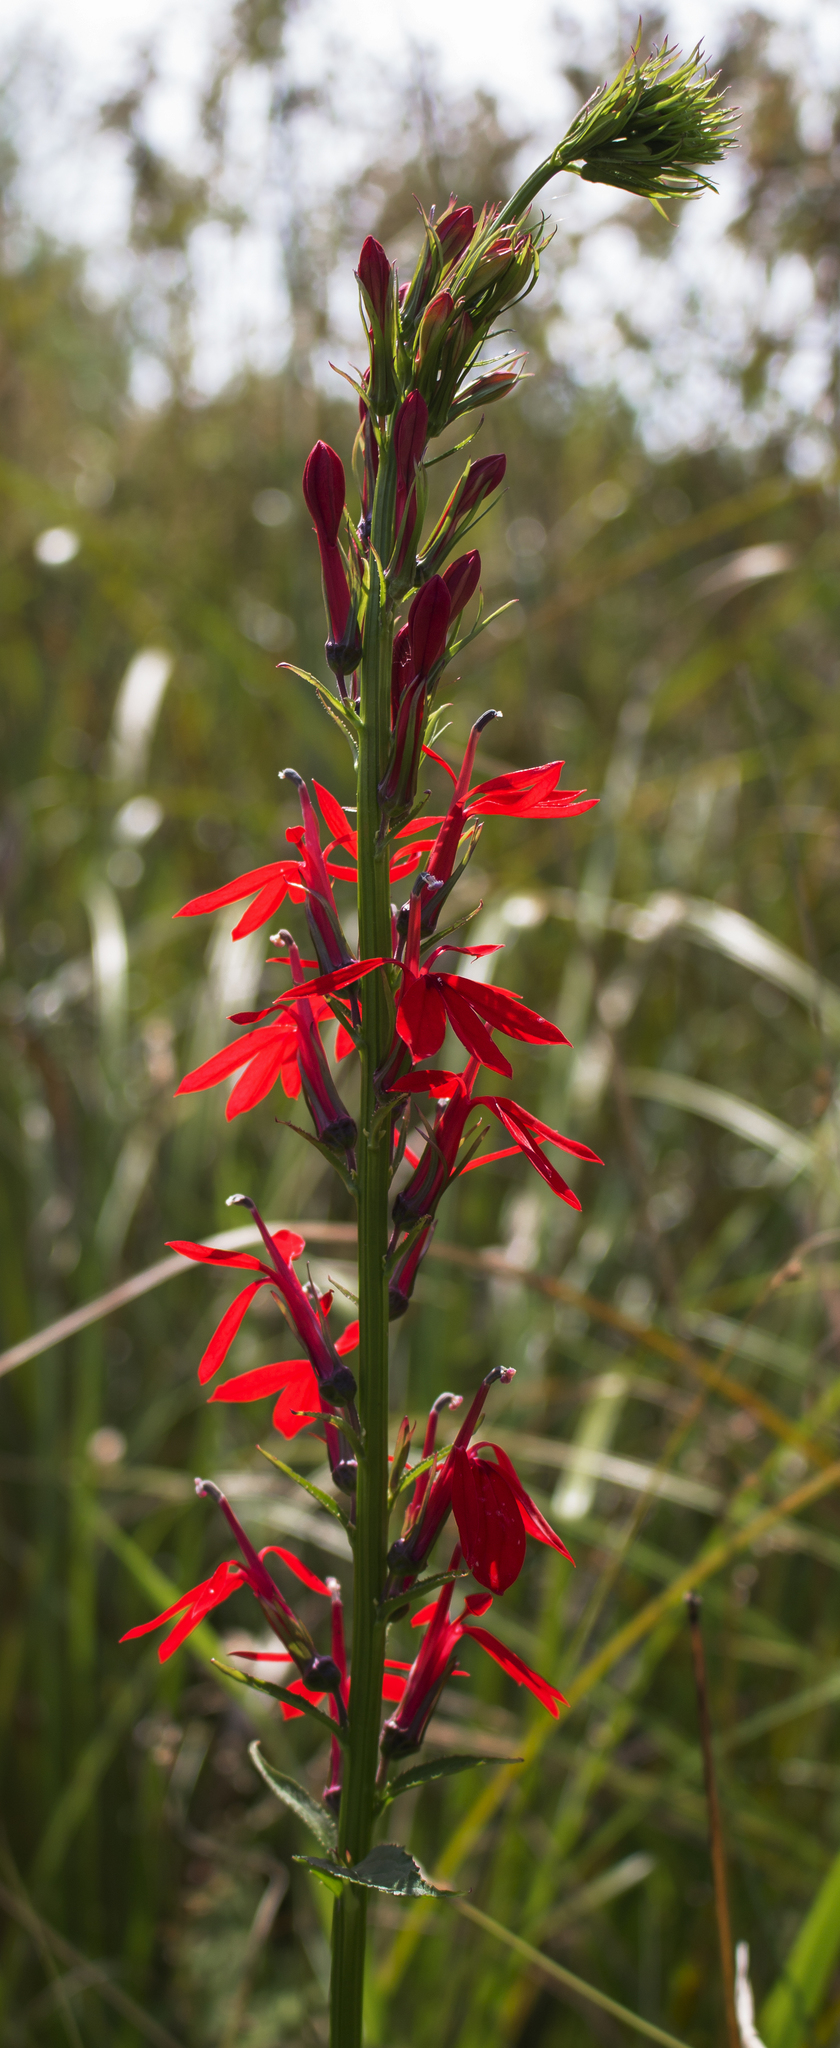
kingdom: Plantae
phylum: Tracheophyta
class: Magnoliopsida
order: Asterales
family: Campanulaceae
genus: Lobelia
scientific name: Lobelia cardinalis
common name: Cardinal flower
